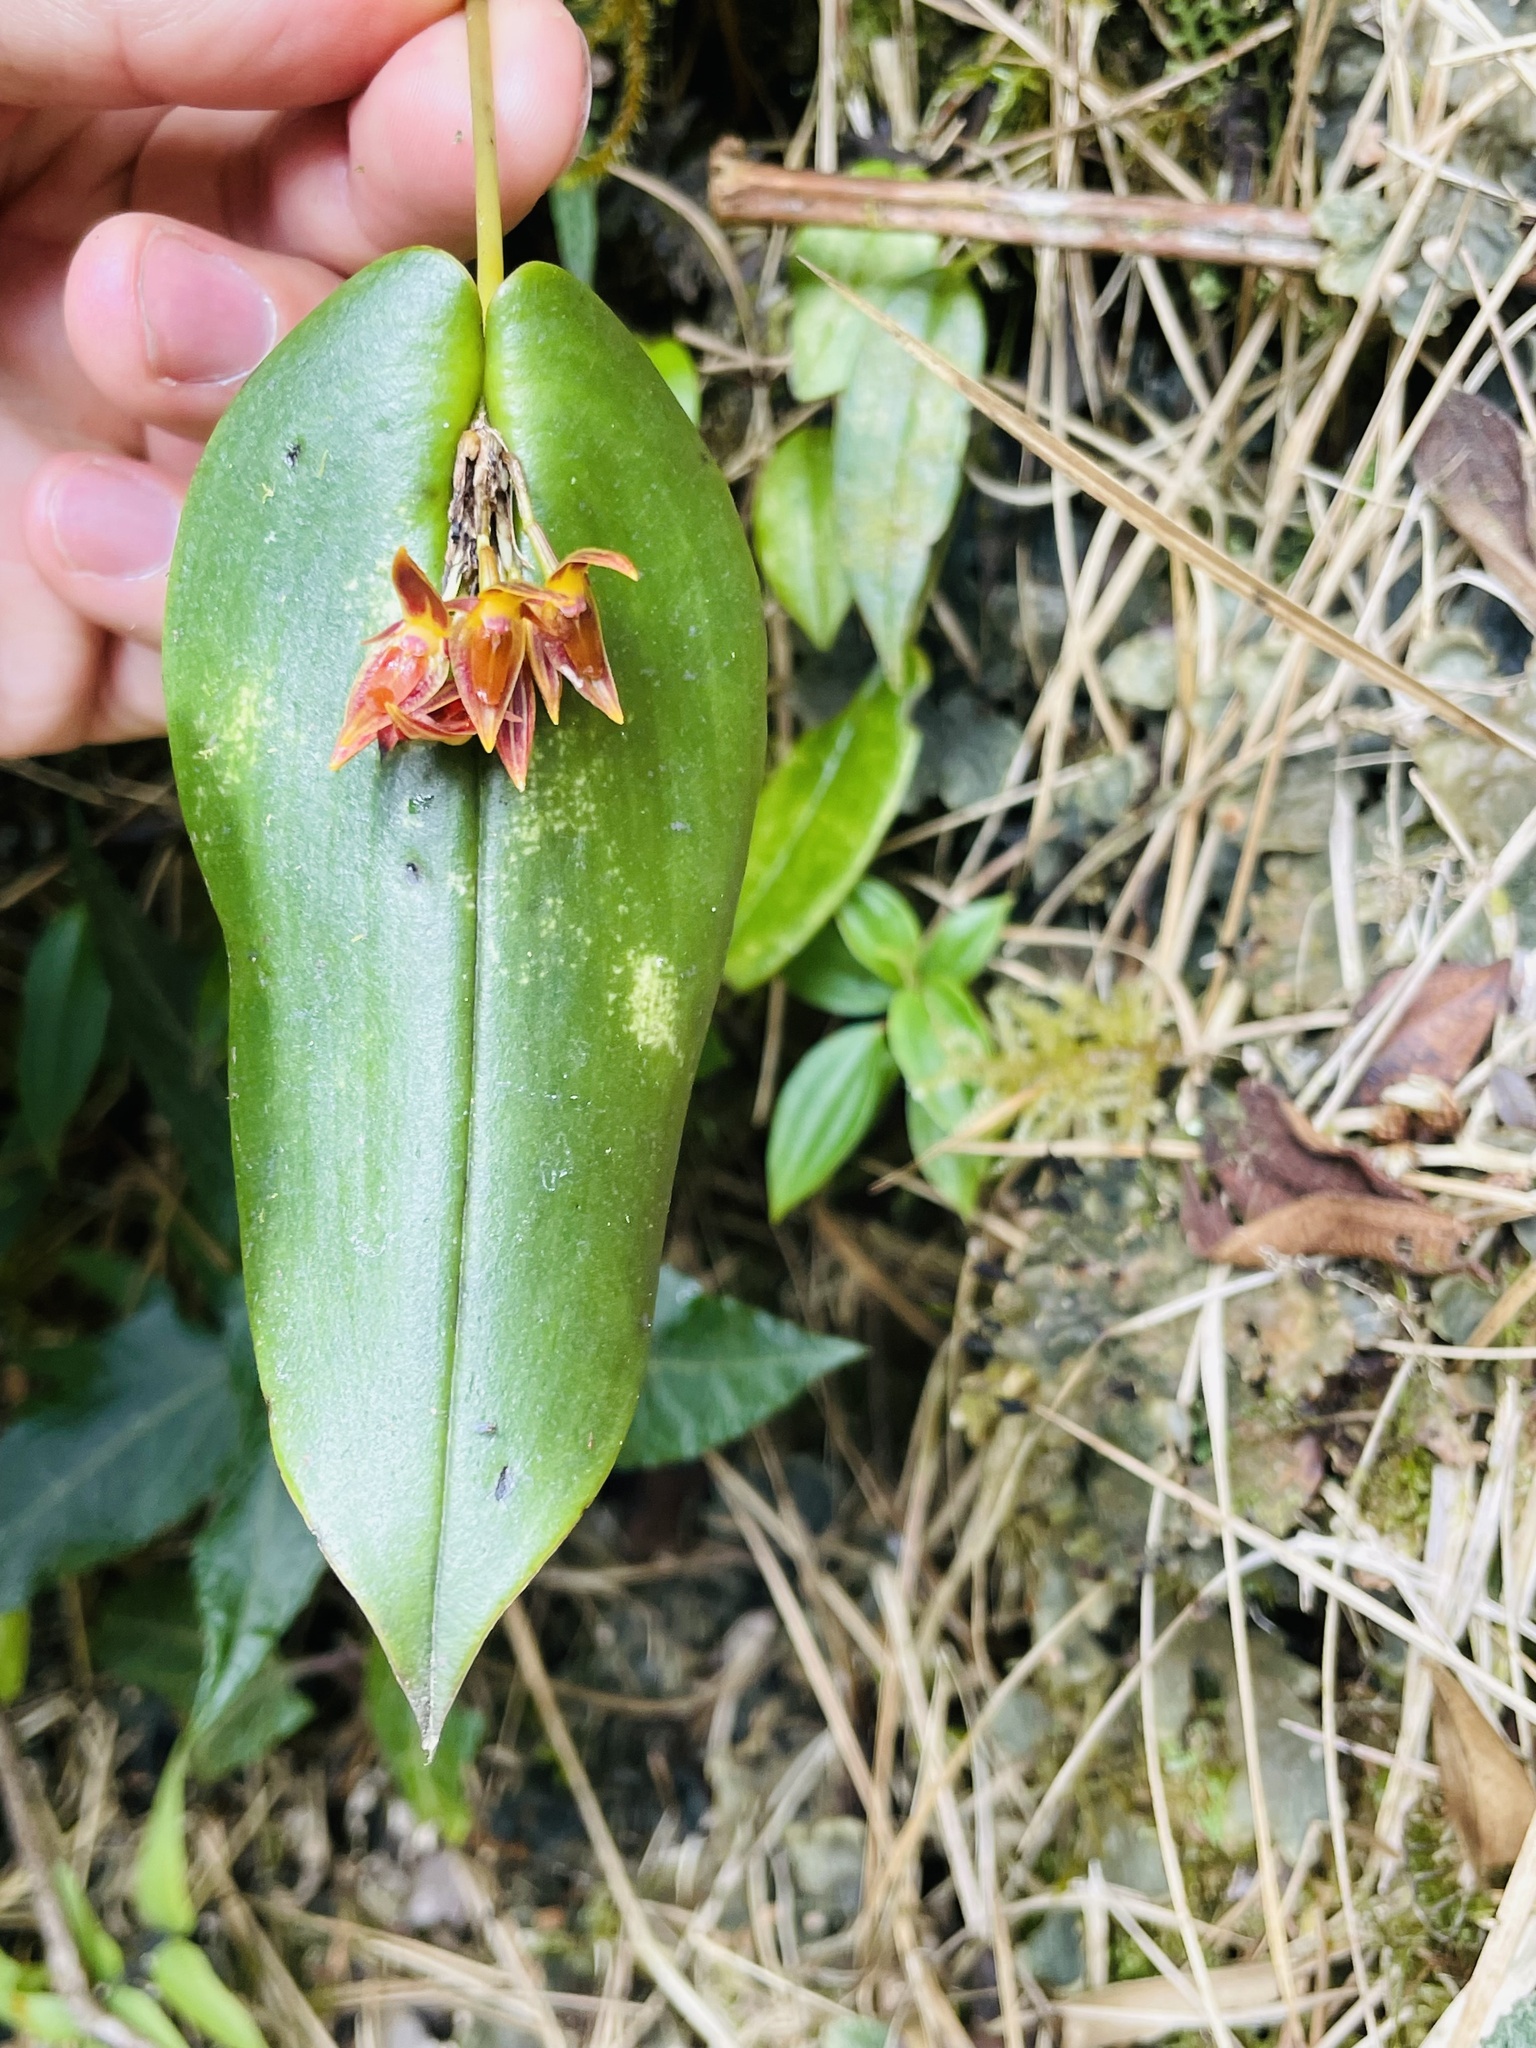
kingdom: Plantae
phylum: Tracheophyta
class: Liliopsida
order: Asparagales
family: Orchidaceae
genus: Pleurothallis
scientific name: Pleurothallis coriacardia
